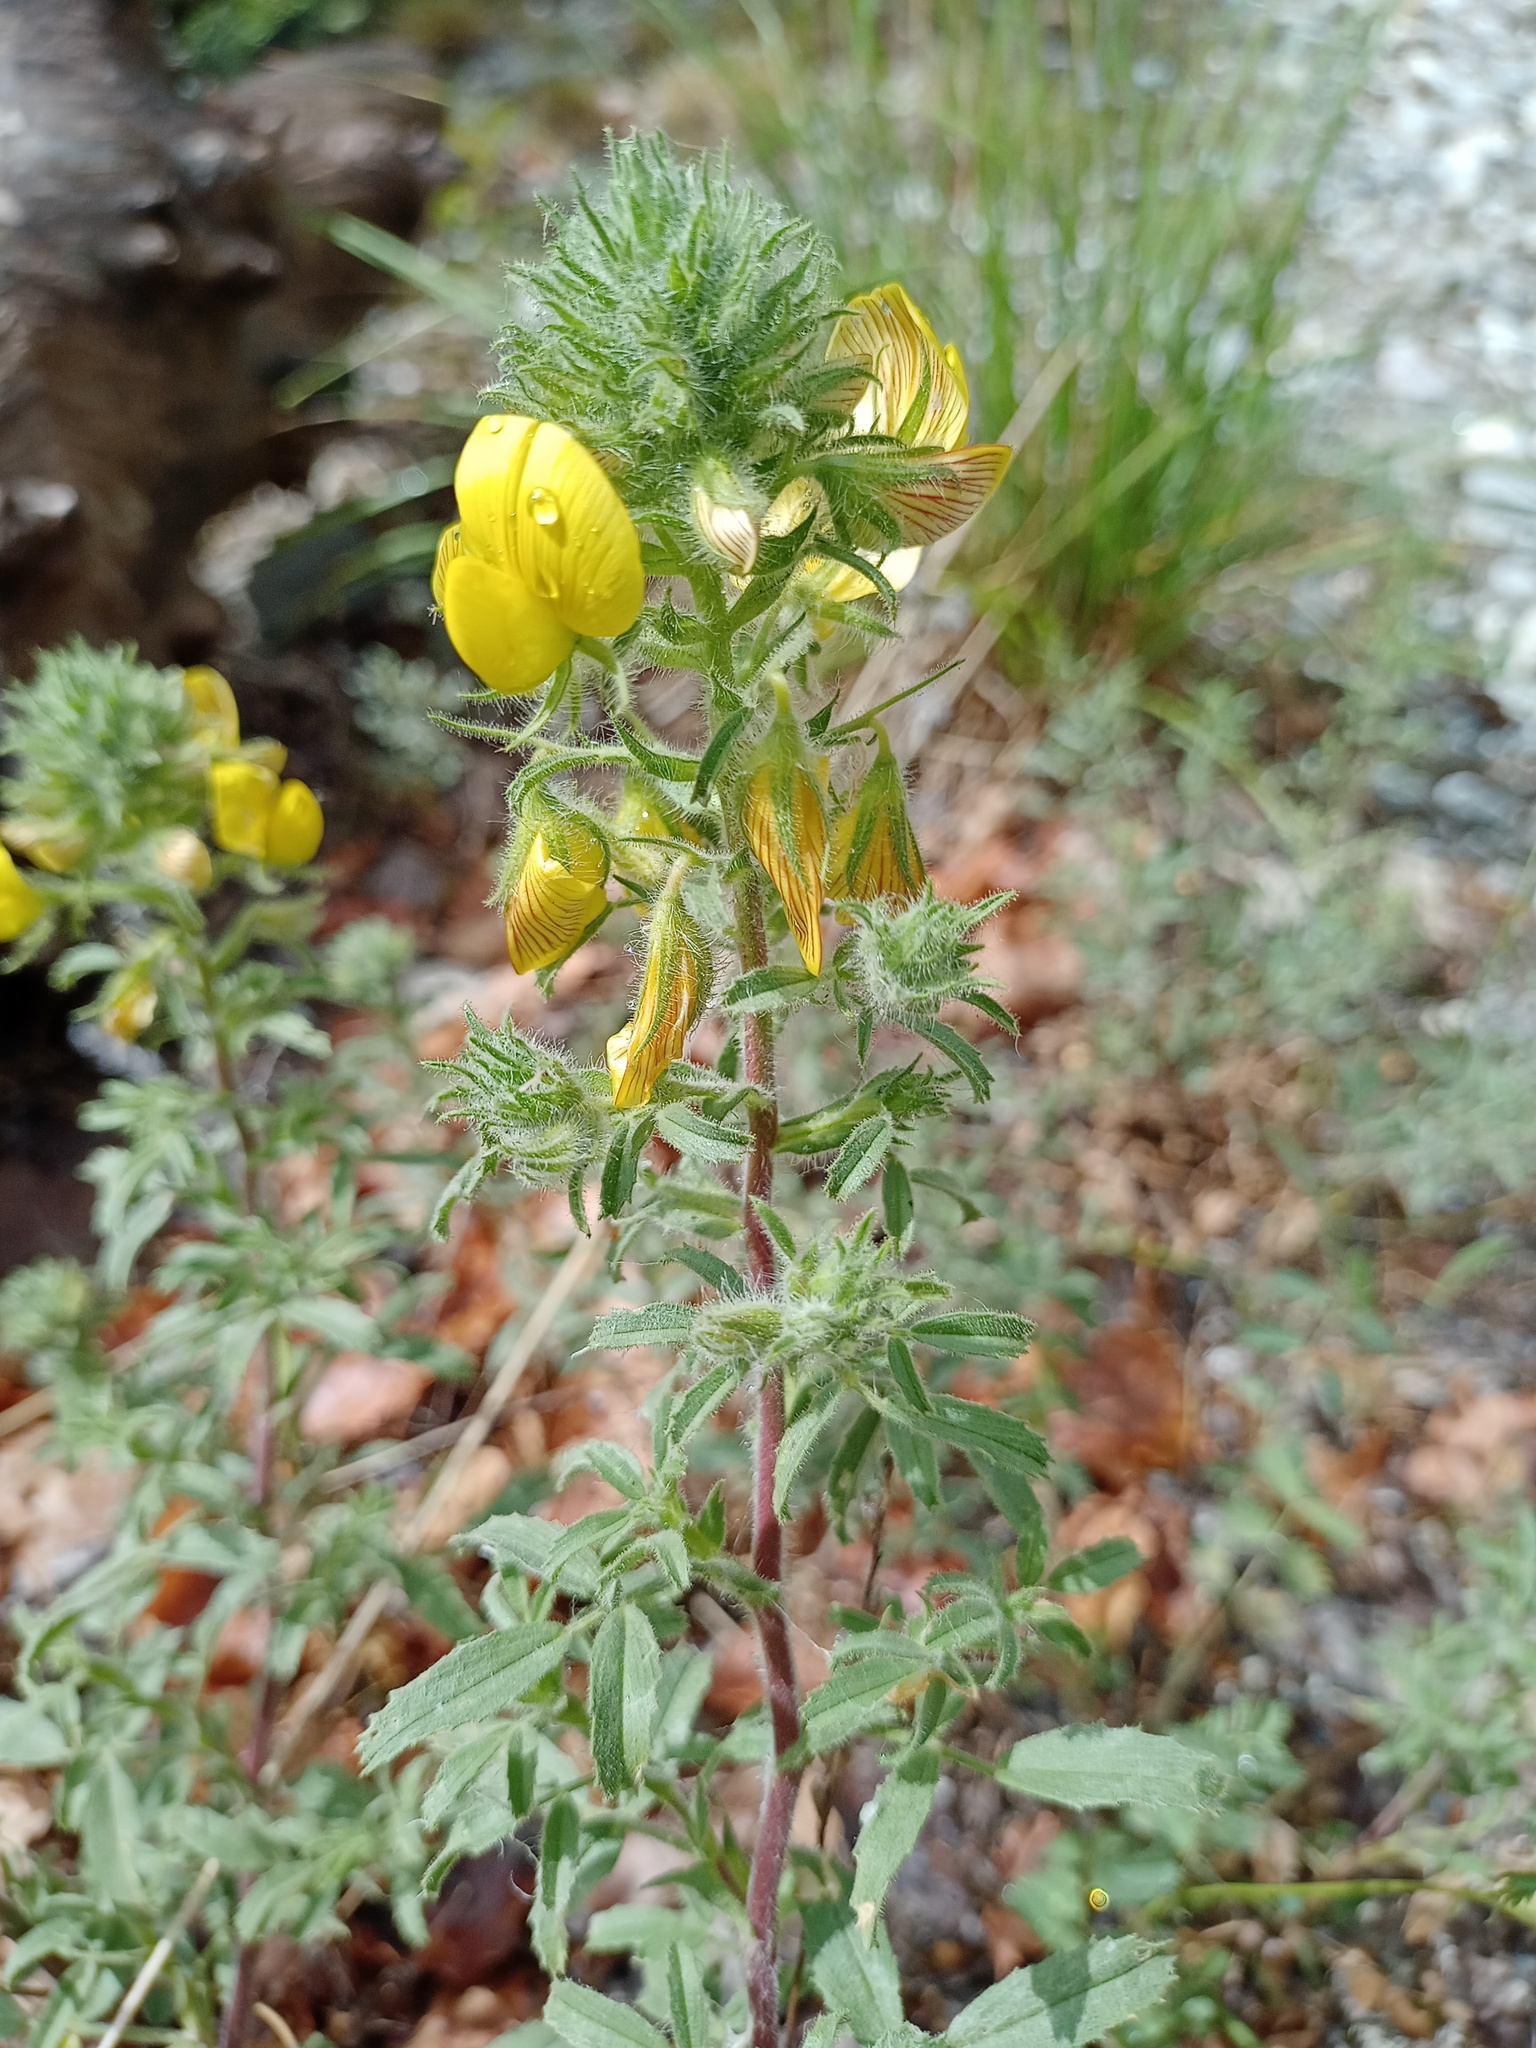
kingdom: Plantae
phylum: Tracheophyta
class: Magnoliopsida
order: Fabales
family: Fabaceae
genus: Ononis
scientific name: Ononis natrix
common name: Yellow restharrow
